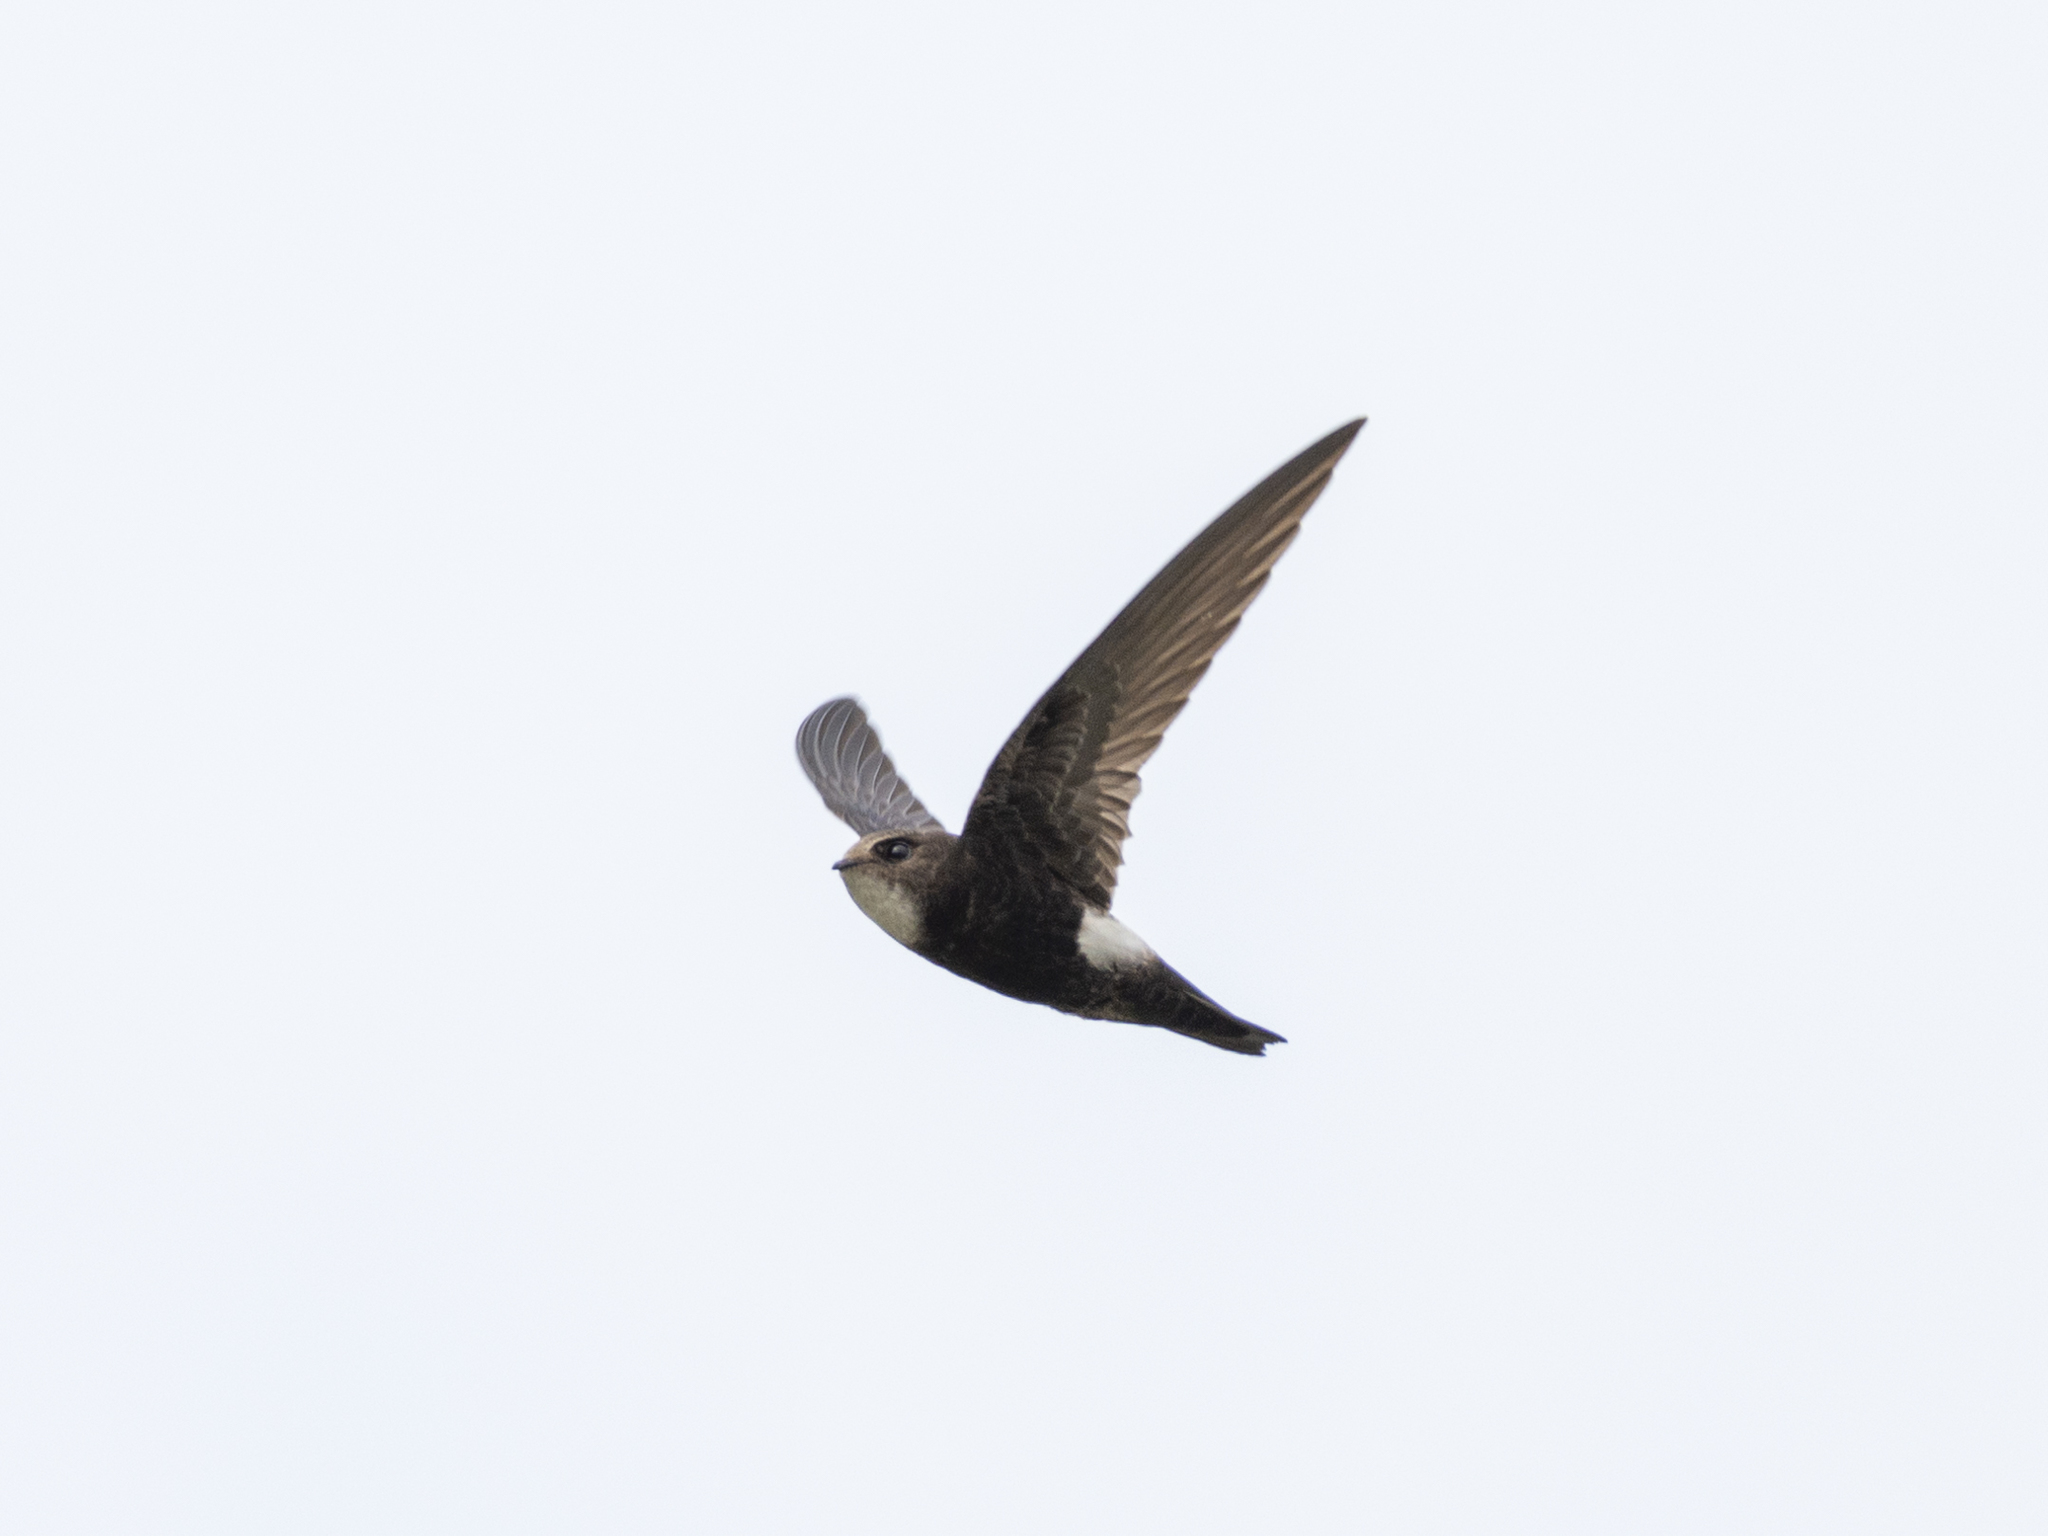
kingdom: Animalia
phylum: Chordata
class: Aves
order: Apodiformes
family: Apodidae
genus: Apus
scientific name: Apus nipalensis
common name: House swift
